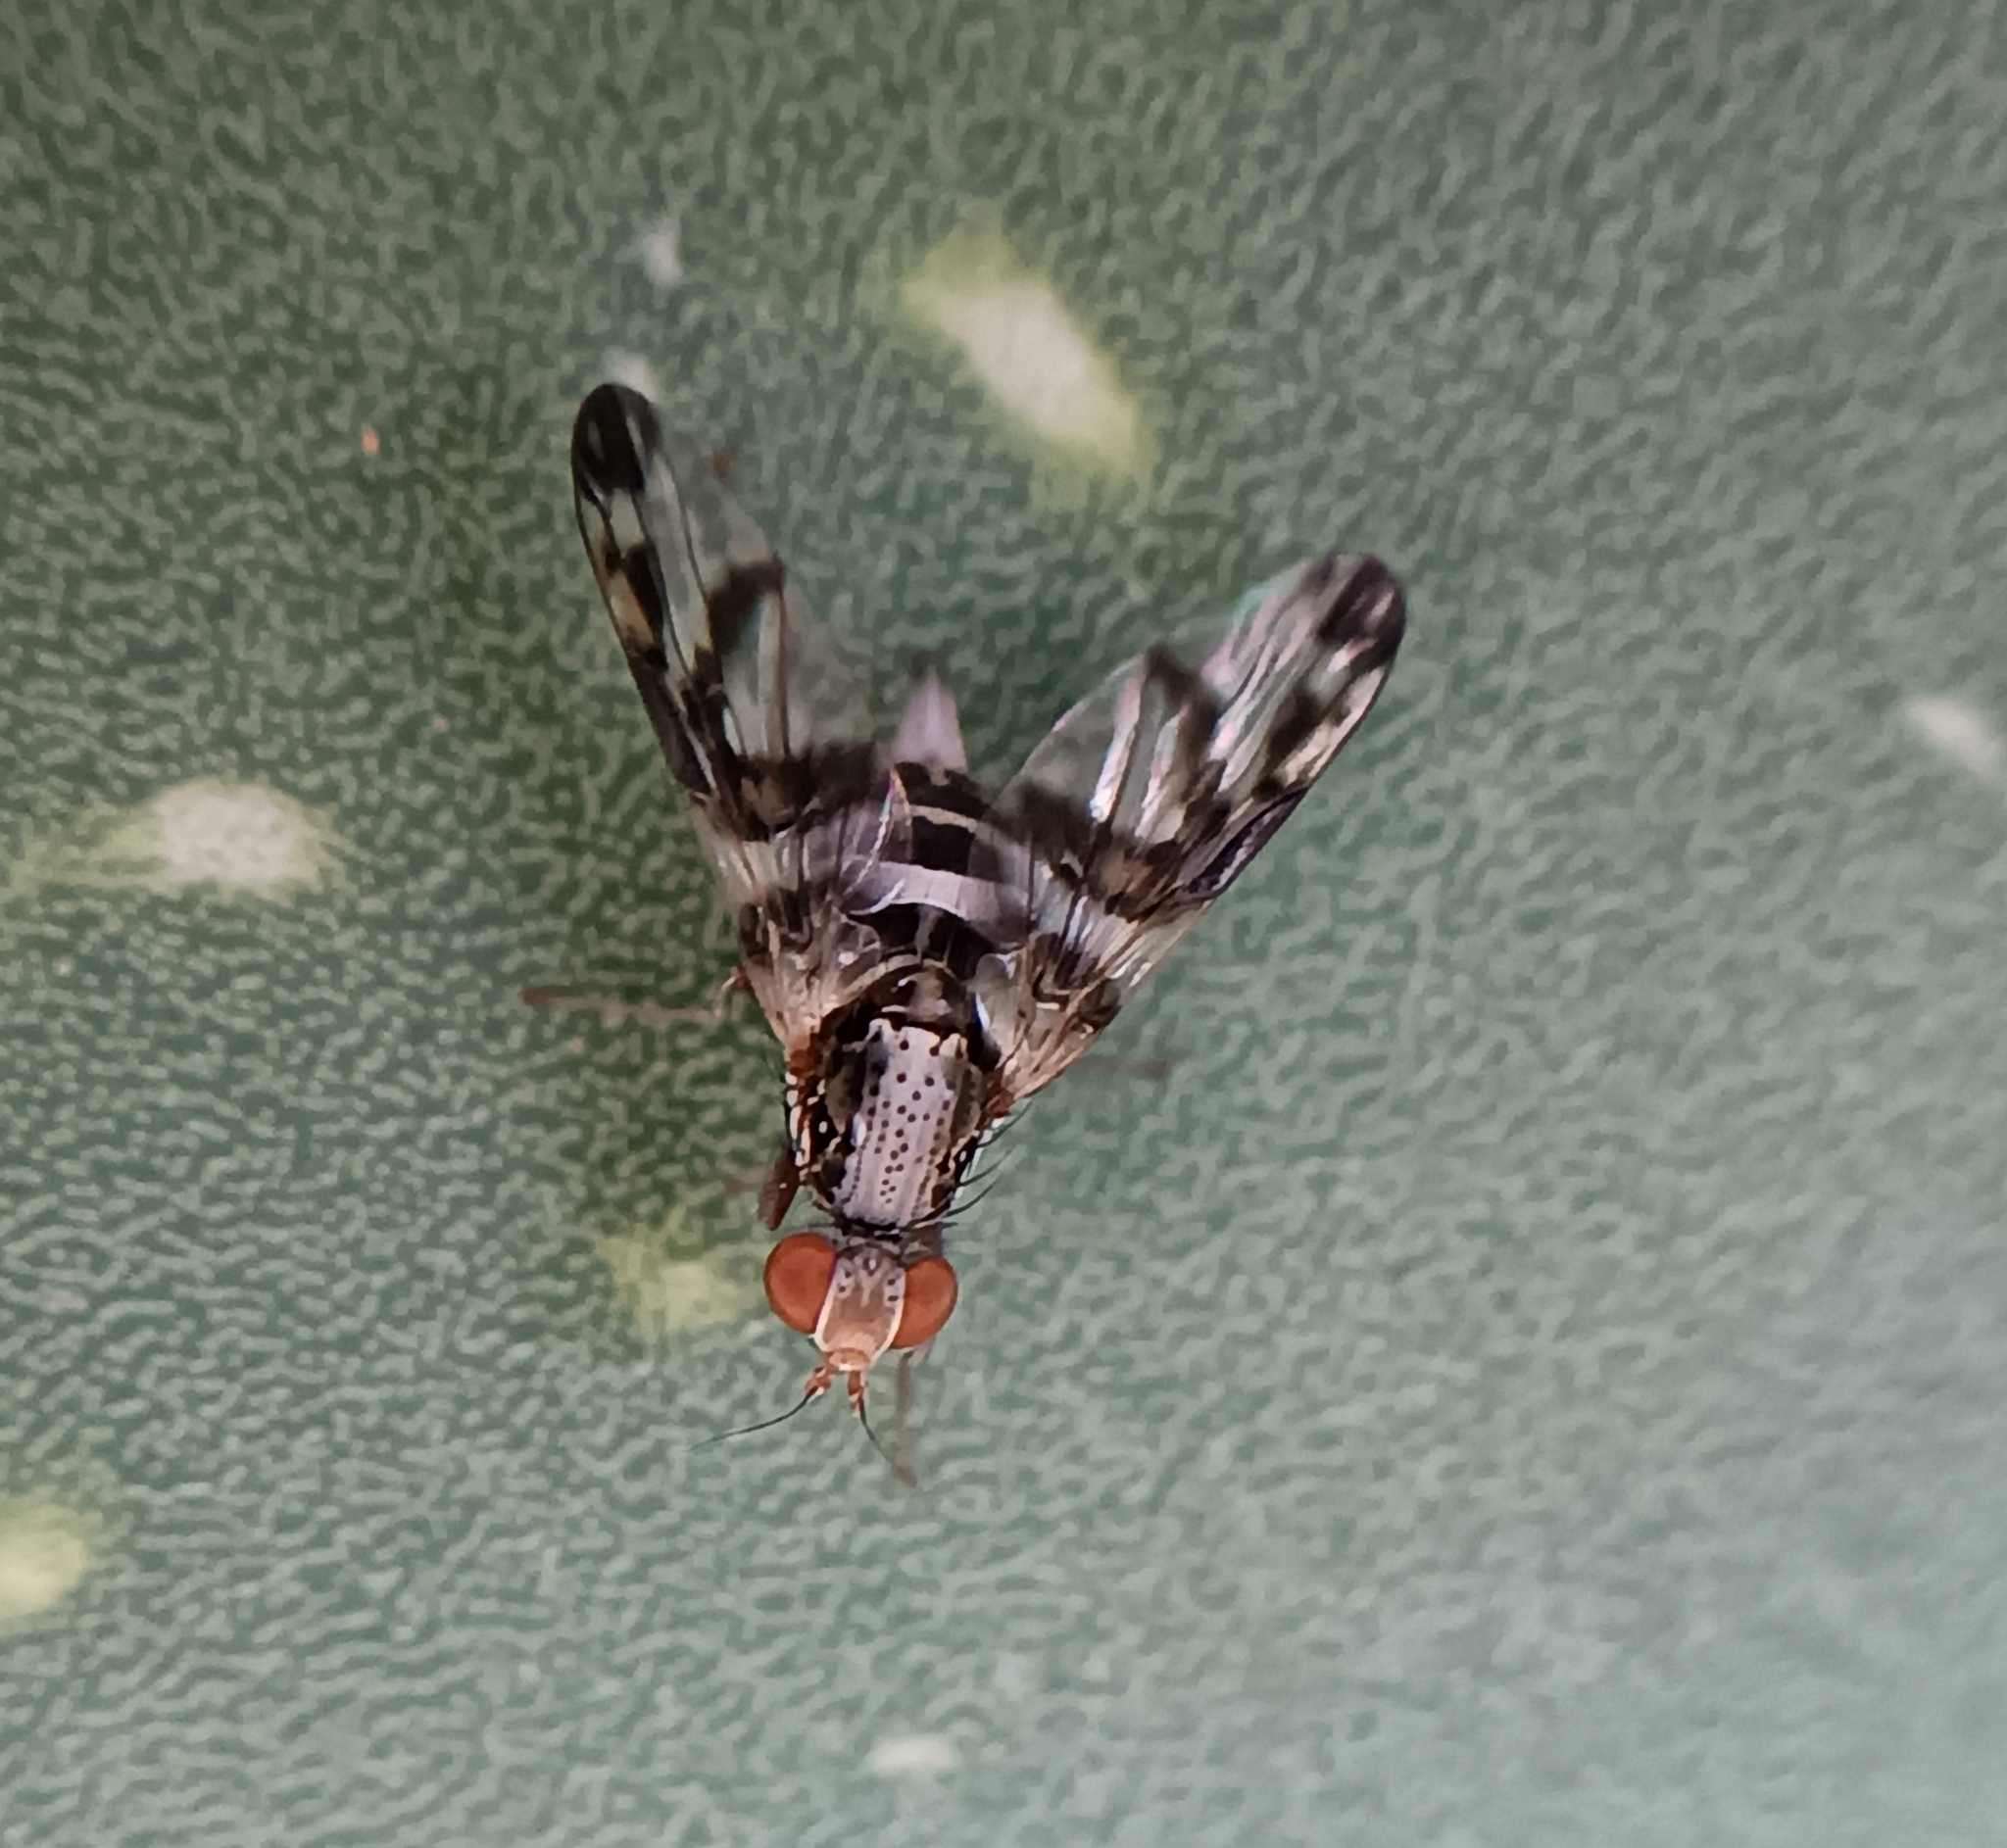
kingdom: Animalia
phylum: Arthropoda
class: Insecta
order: Diptera
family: Ulidiidae
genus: Pseudodyscrasis
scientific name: Pseudodyscrasis scutellaris
